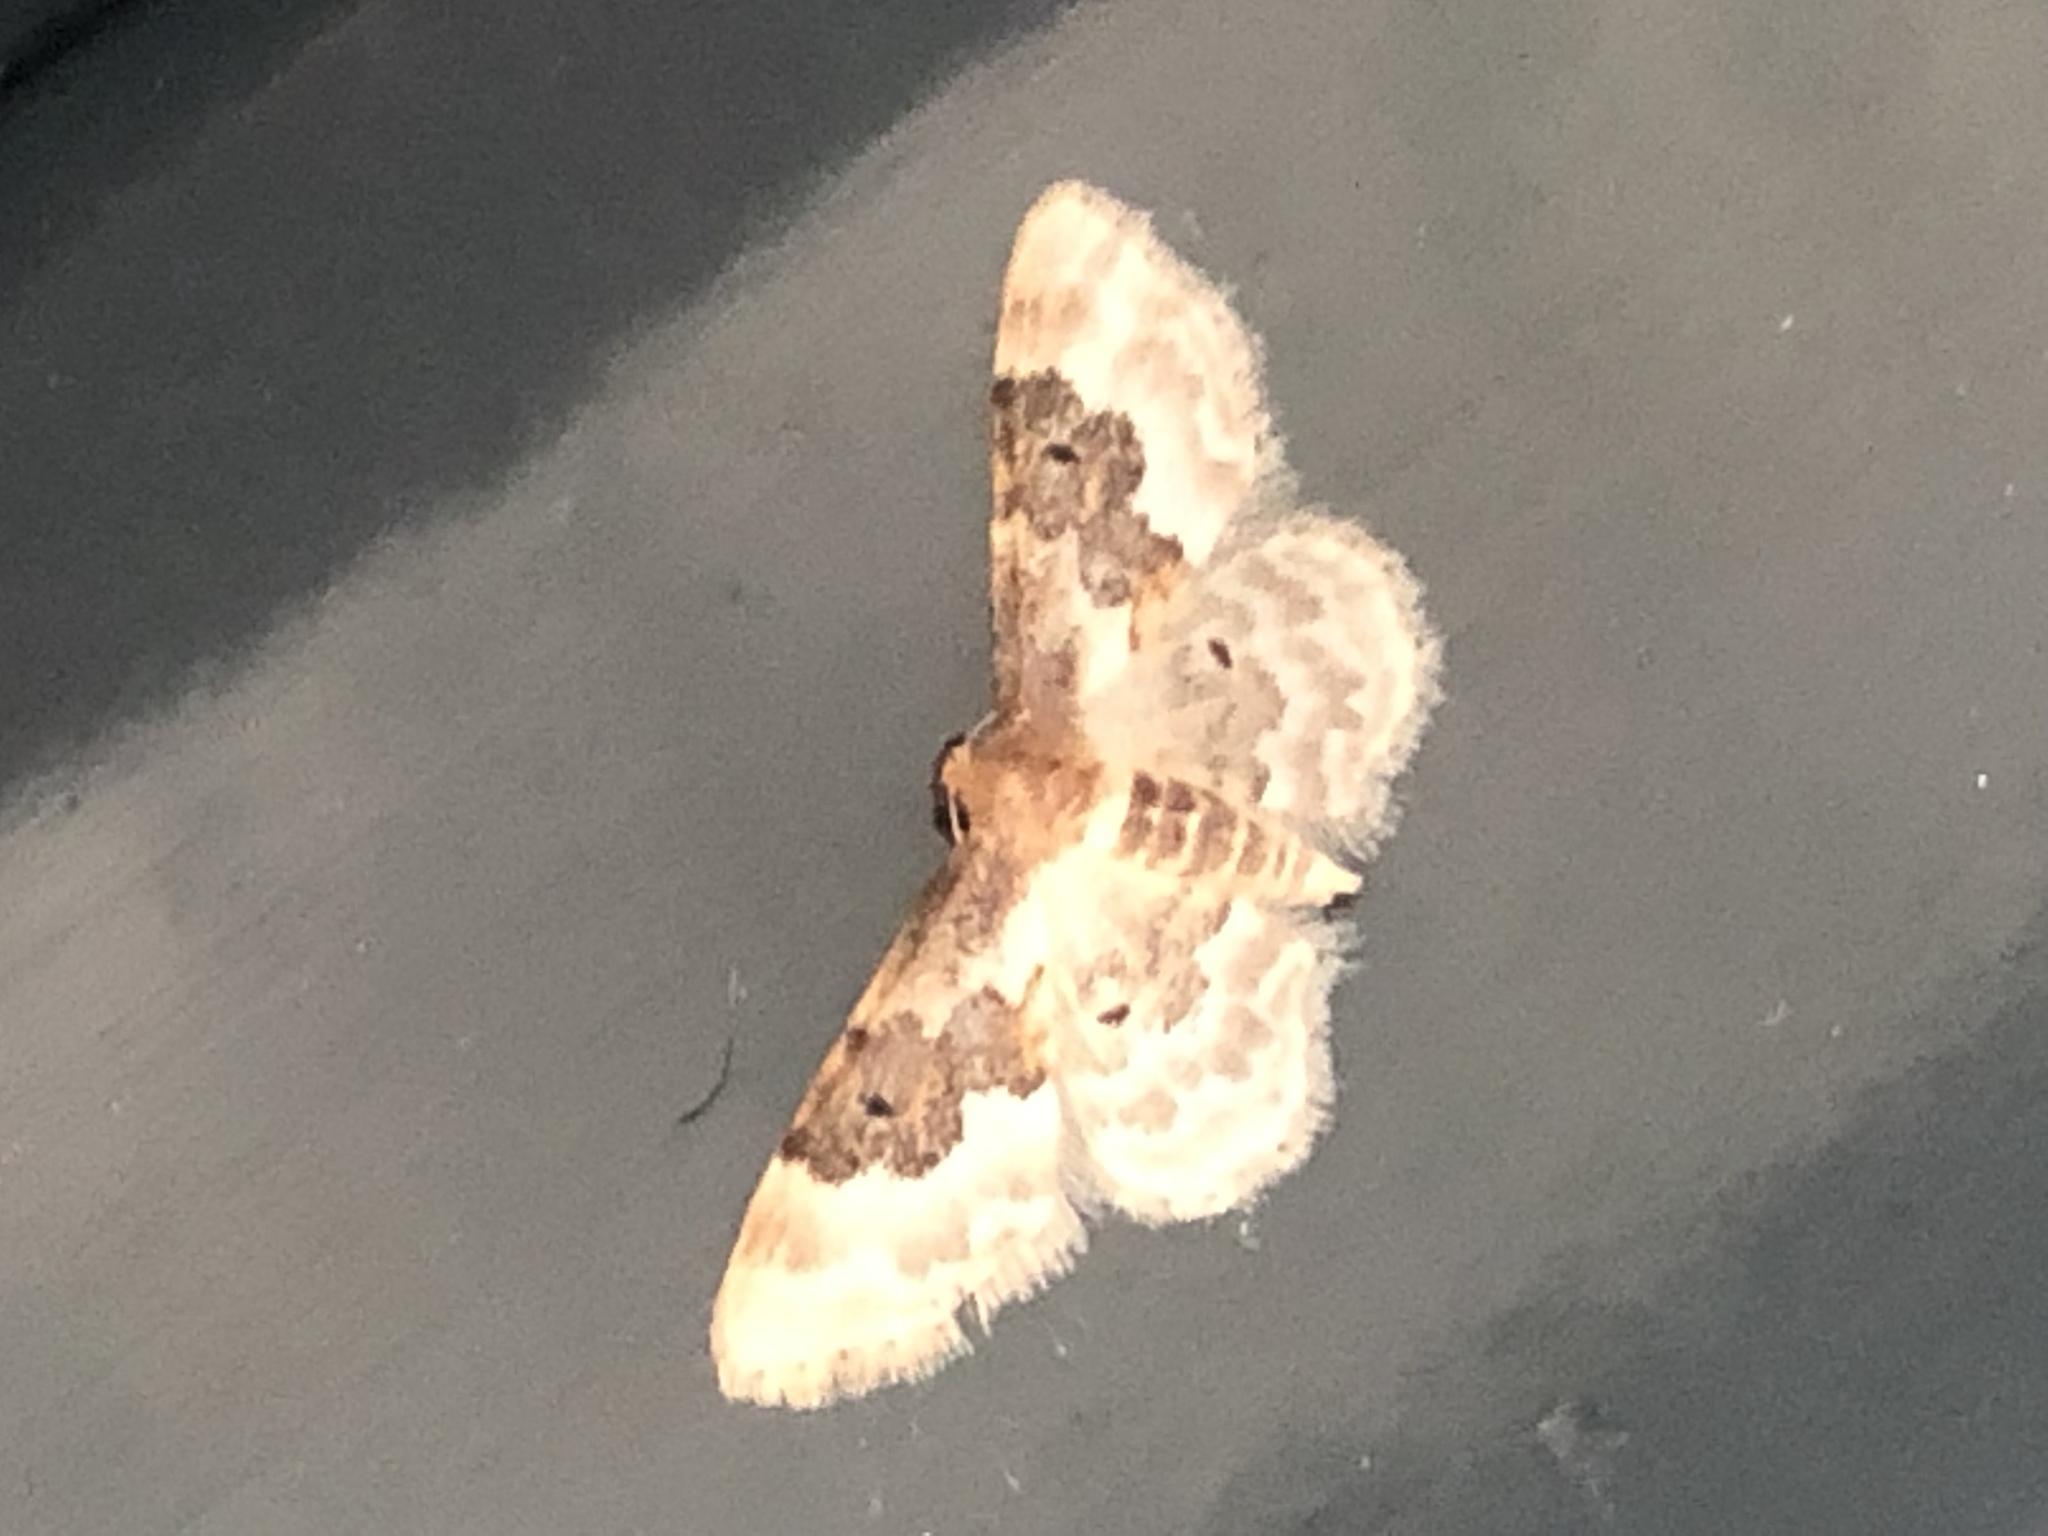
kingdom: Animalia
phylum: Arthropoda
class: Insecta
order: Lepidoptera
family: Geometridae
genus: Idaea
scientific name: Idaea rusticata
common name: Least carpet
